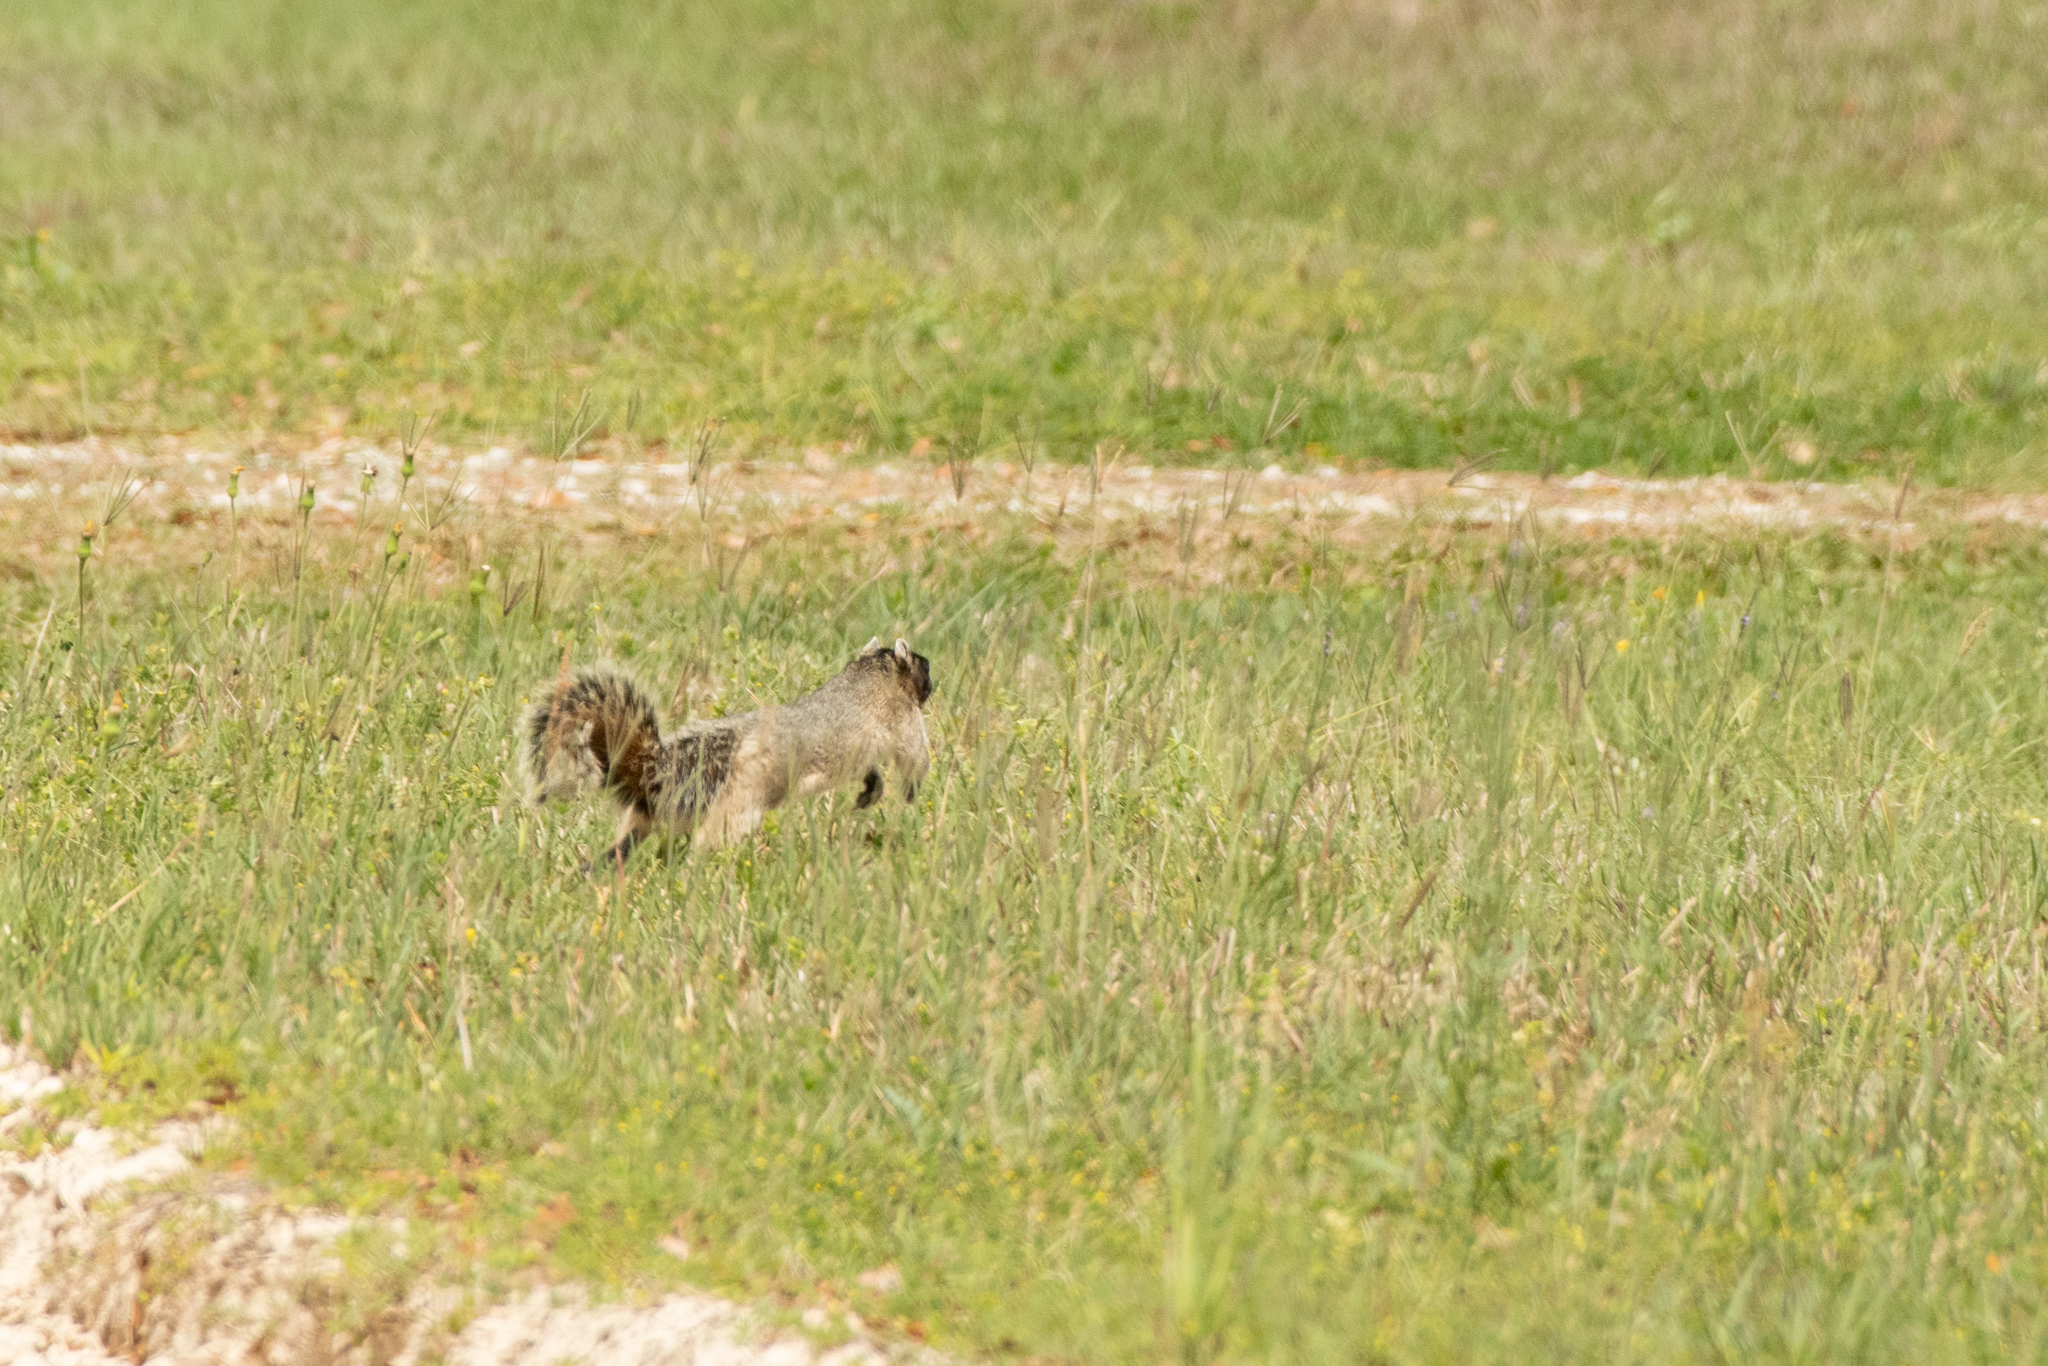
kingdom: Animalia
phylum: Chordata
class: Mammalia
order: Rodentia
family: Sciuridae
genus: Sciurus
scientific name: Sciurus niger
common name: Fox squirrel
